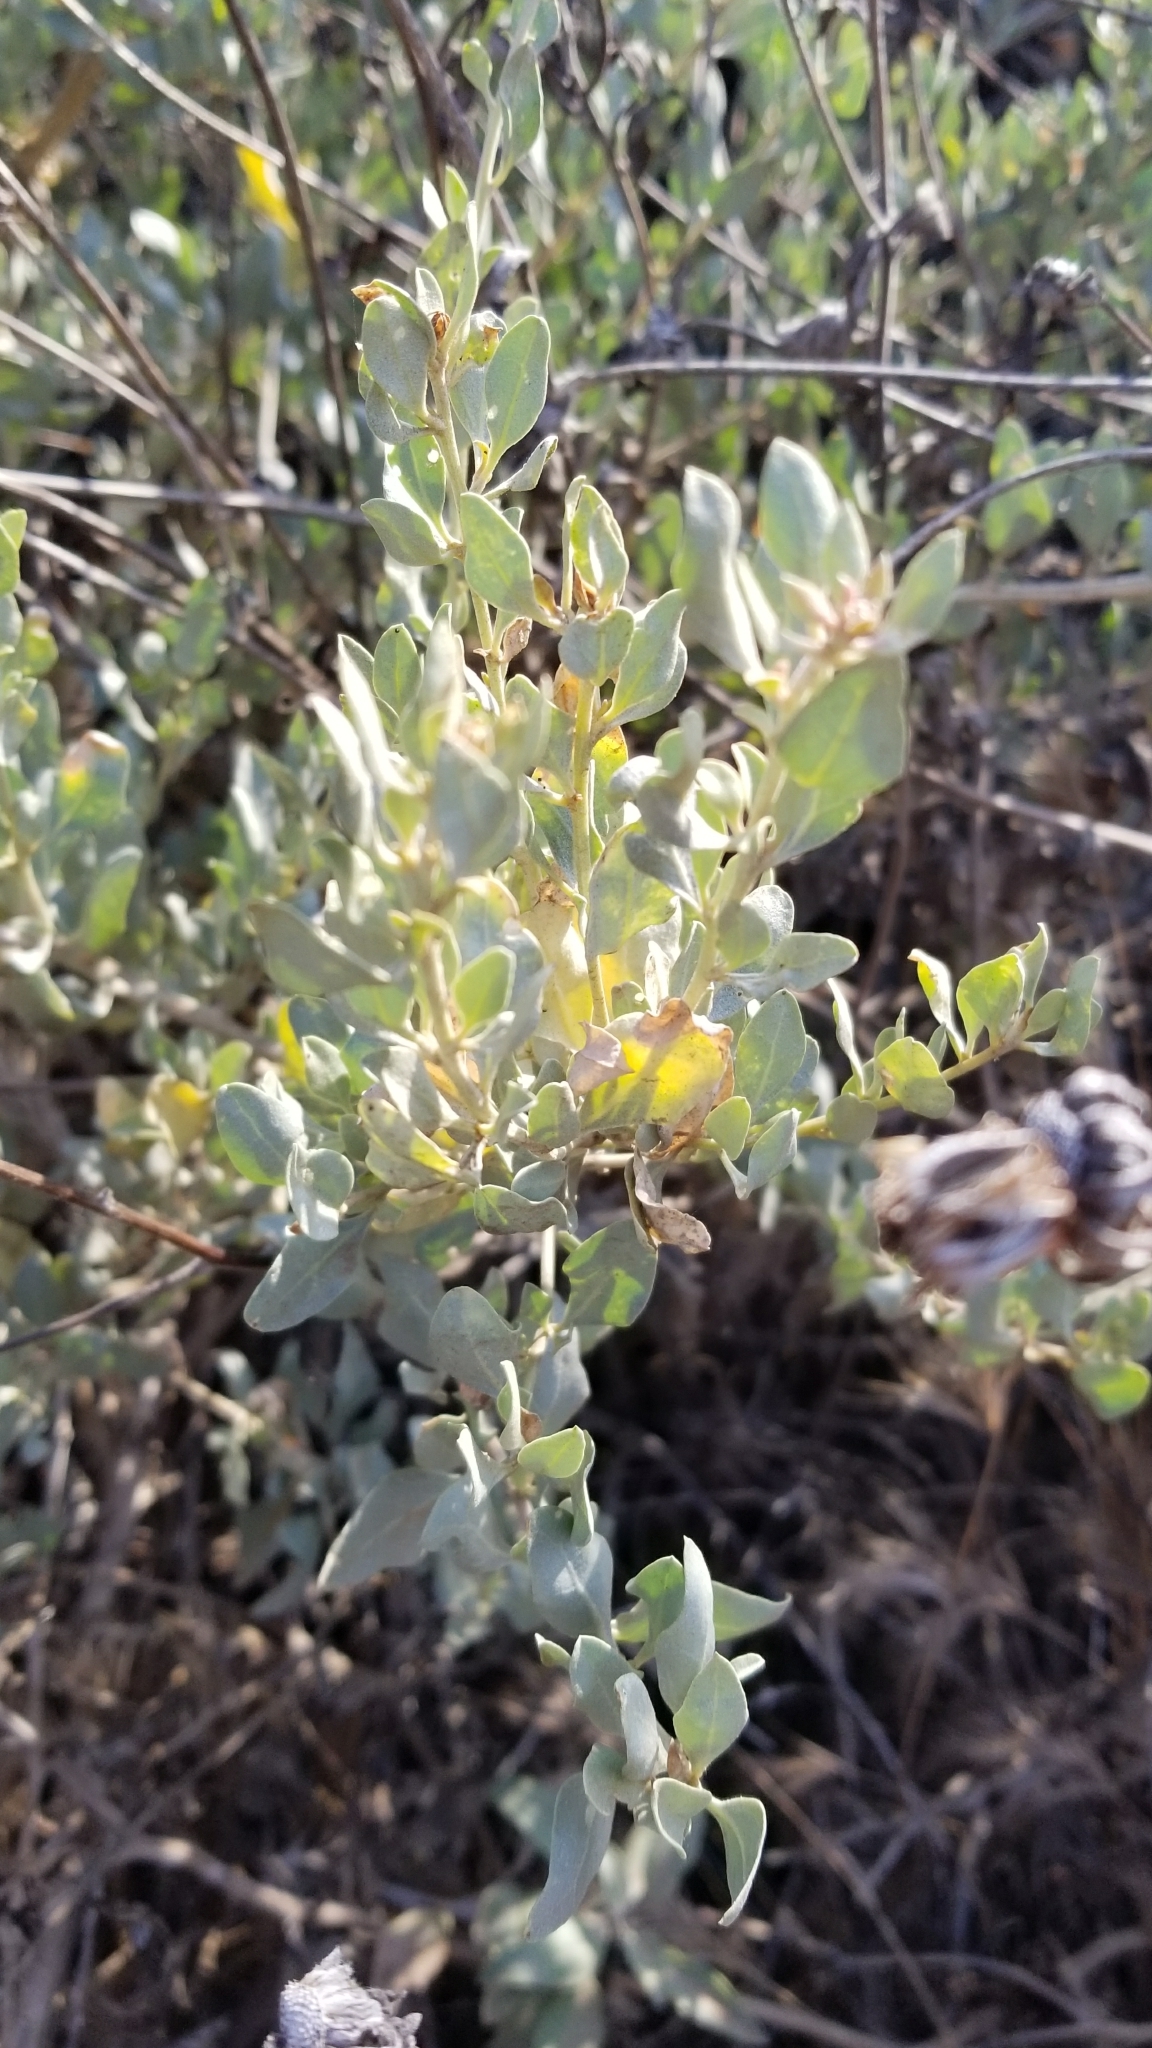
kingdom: Plantae
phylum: Tracheophyta
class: Magnoliopsida
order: Caryophyllales
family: Amaranthaceae
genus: Atriplex
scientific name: Atriplex lentiformis
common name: Big saltbush
